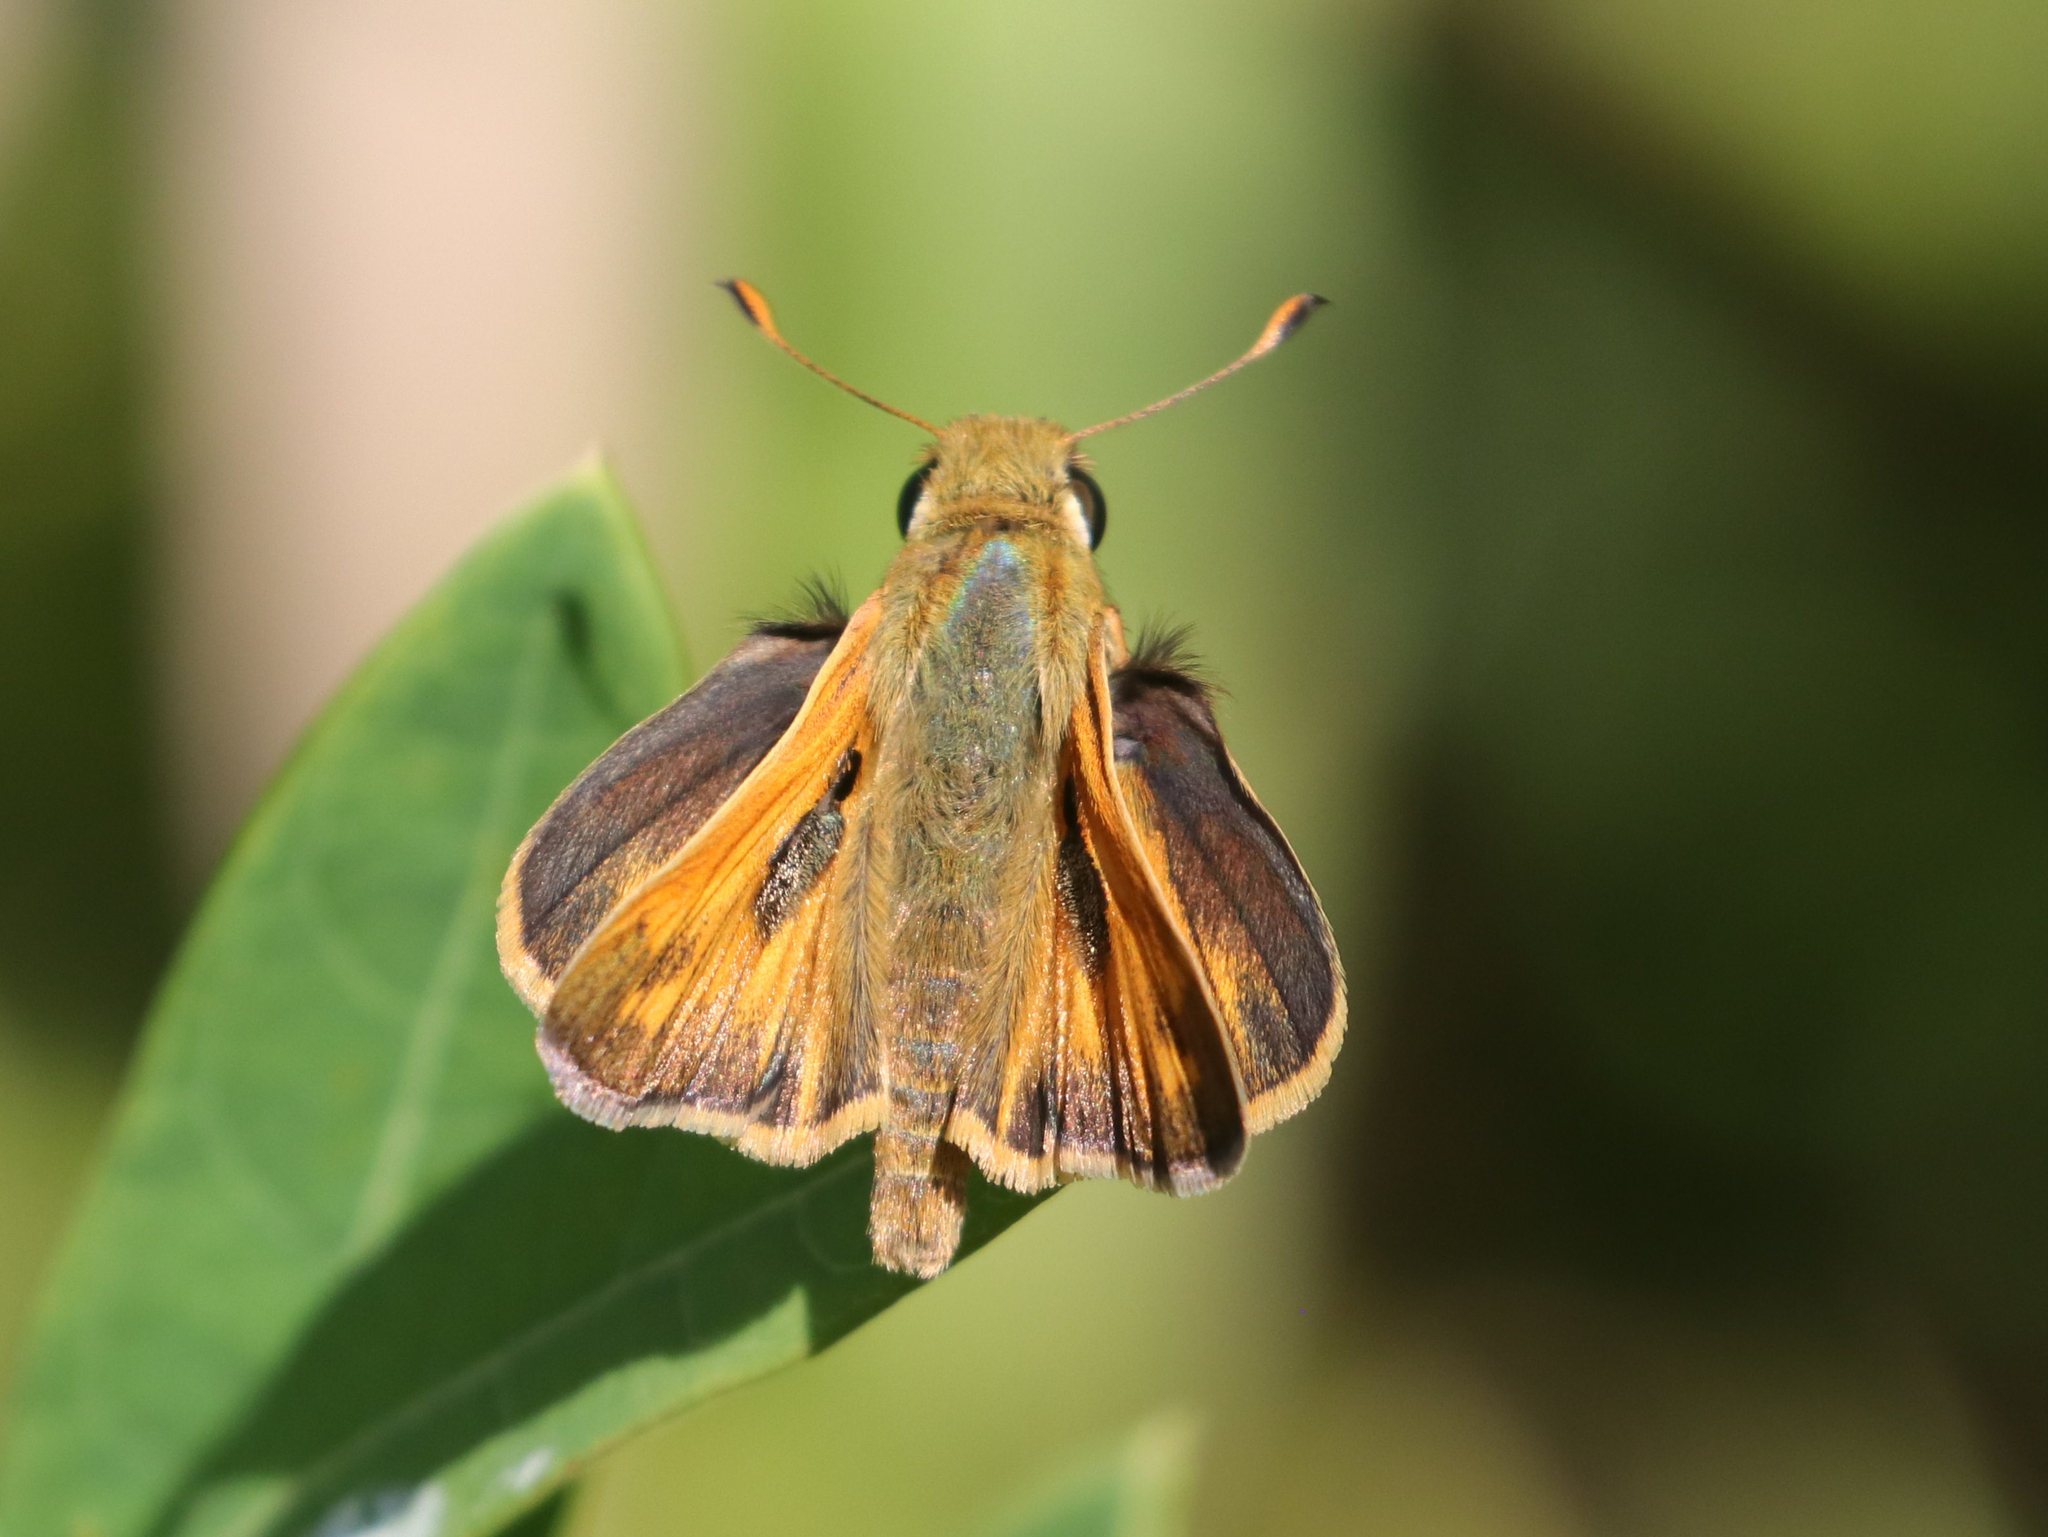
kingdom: Animalia
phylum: Arthropoda
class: Insecta
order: Lepidoptera
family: Hesperiidae
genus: Atalopedes
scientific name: Atalopedes
